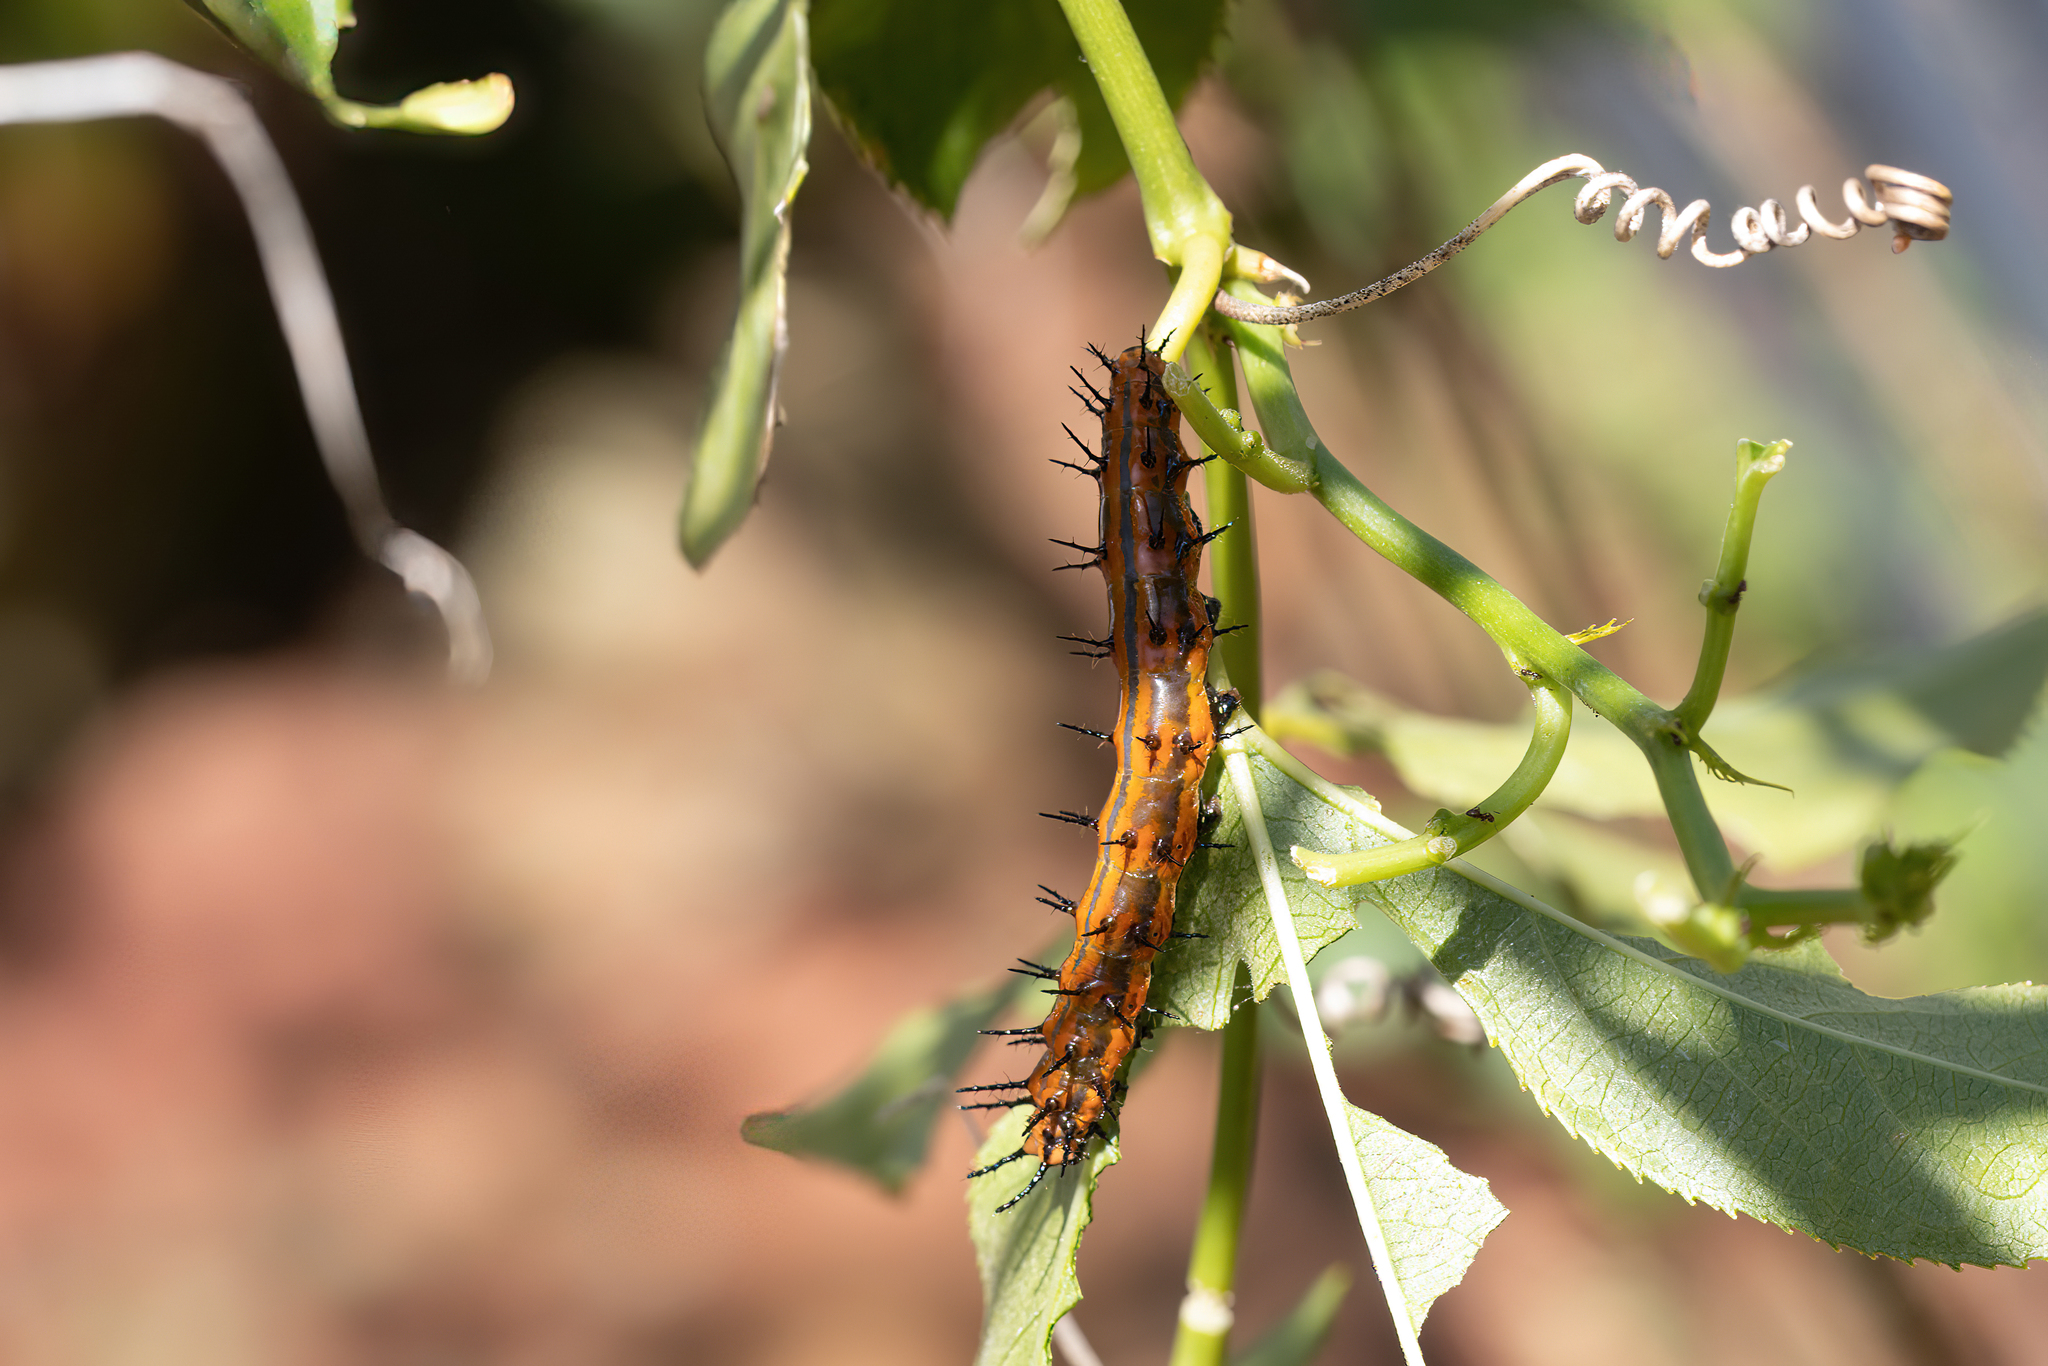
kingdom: Animalia
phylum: Arthropoda
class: Insecta
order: Lepidoptera
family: Nymphalidae
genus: Dione
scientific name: Dione vanillae
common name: Gulf fritillary
